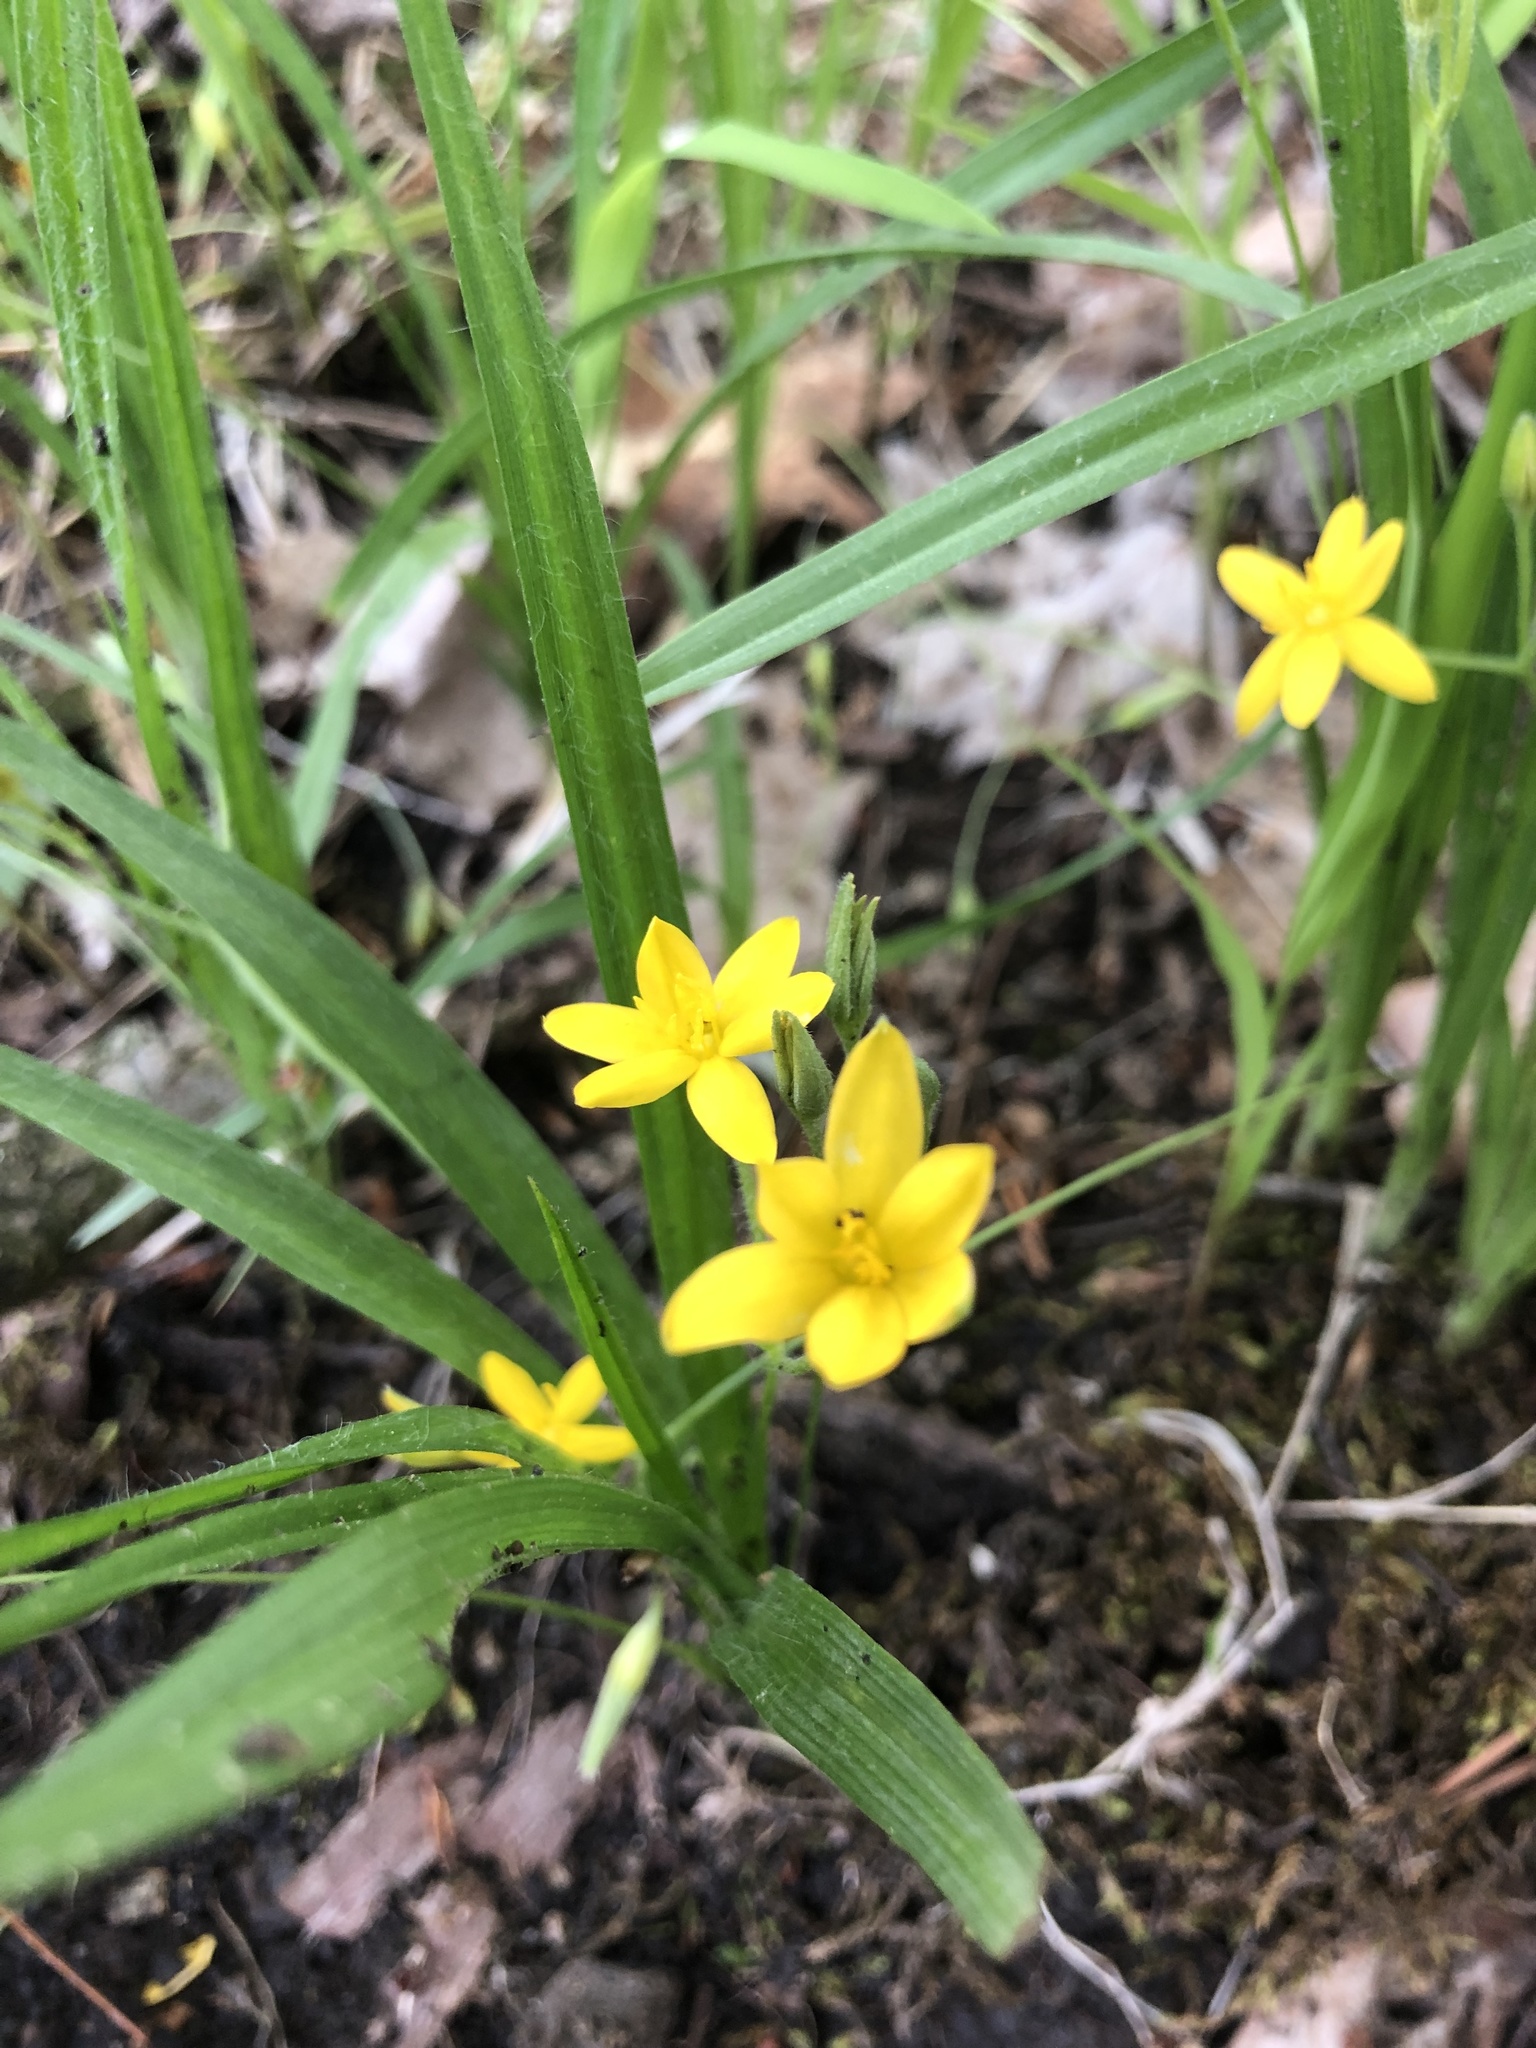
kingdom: Plantae
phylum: Tracheophyta
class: Liliopsida
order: Asparagales
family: Hypoxidaceae
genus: Hypoxis
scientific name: Hypoxis hirsuta
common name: Common goldstar
